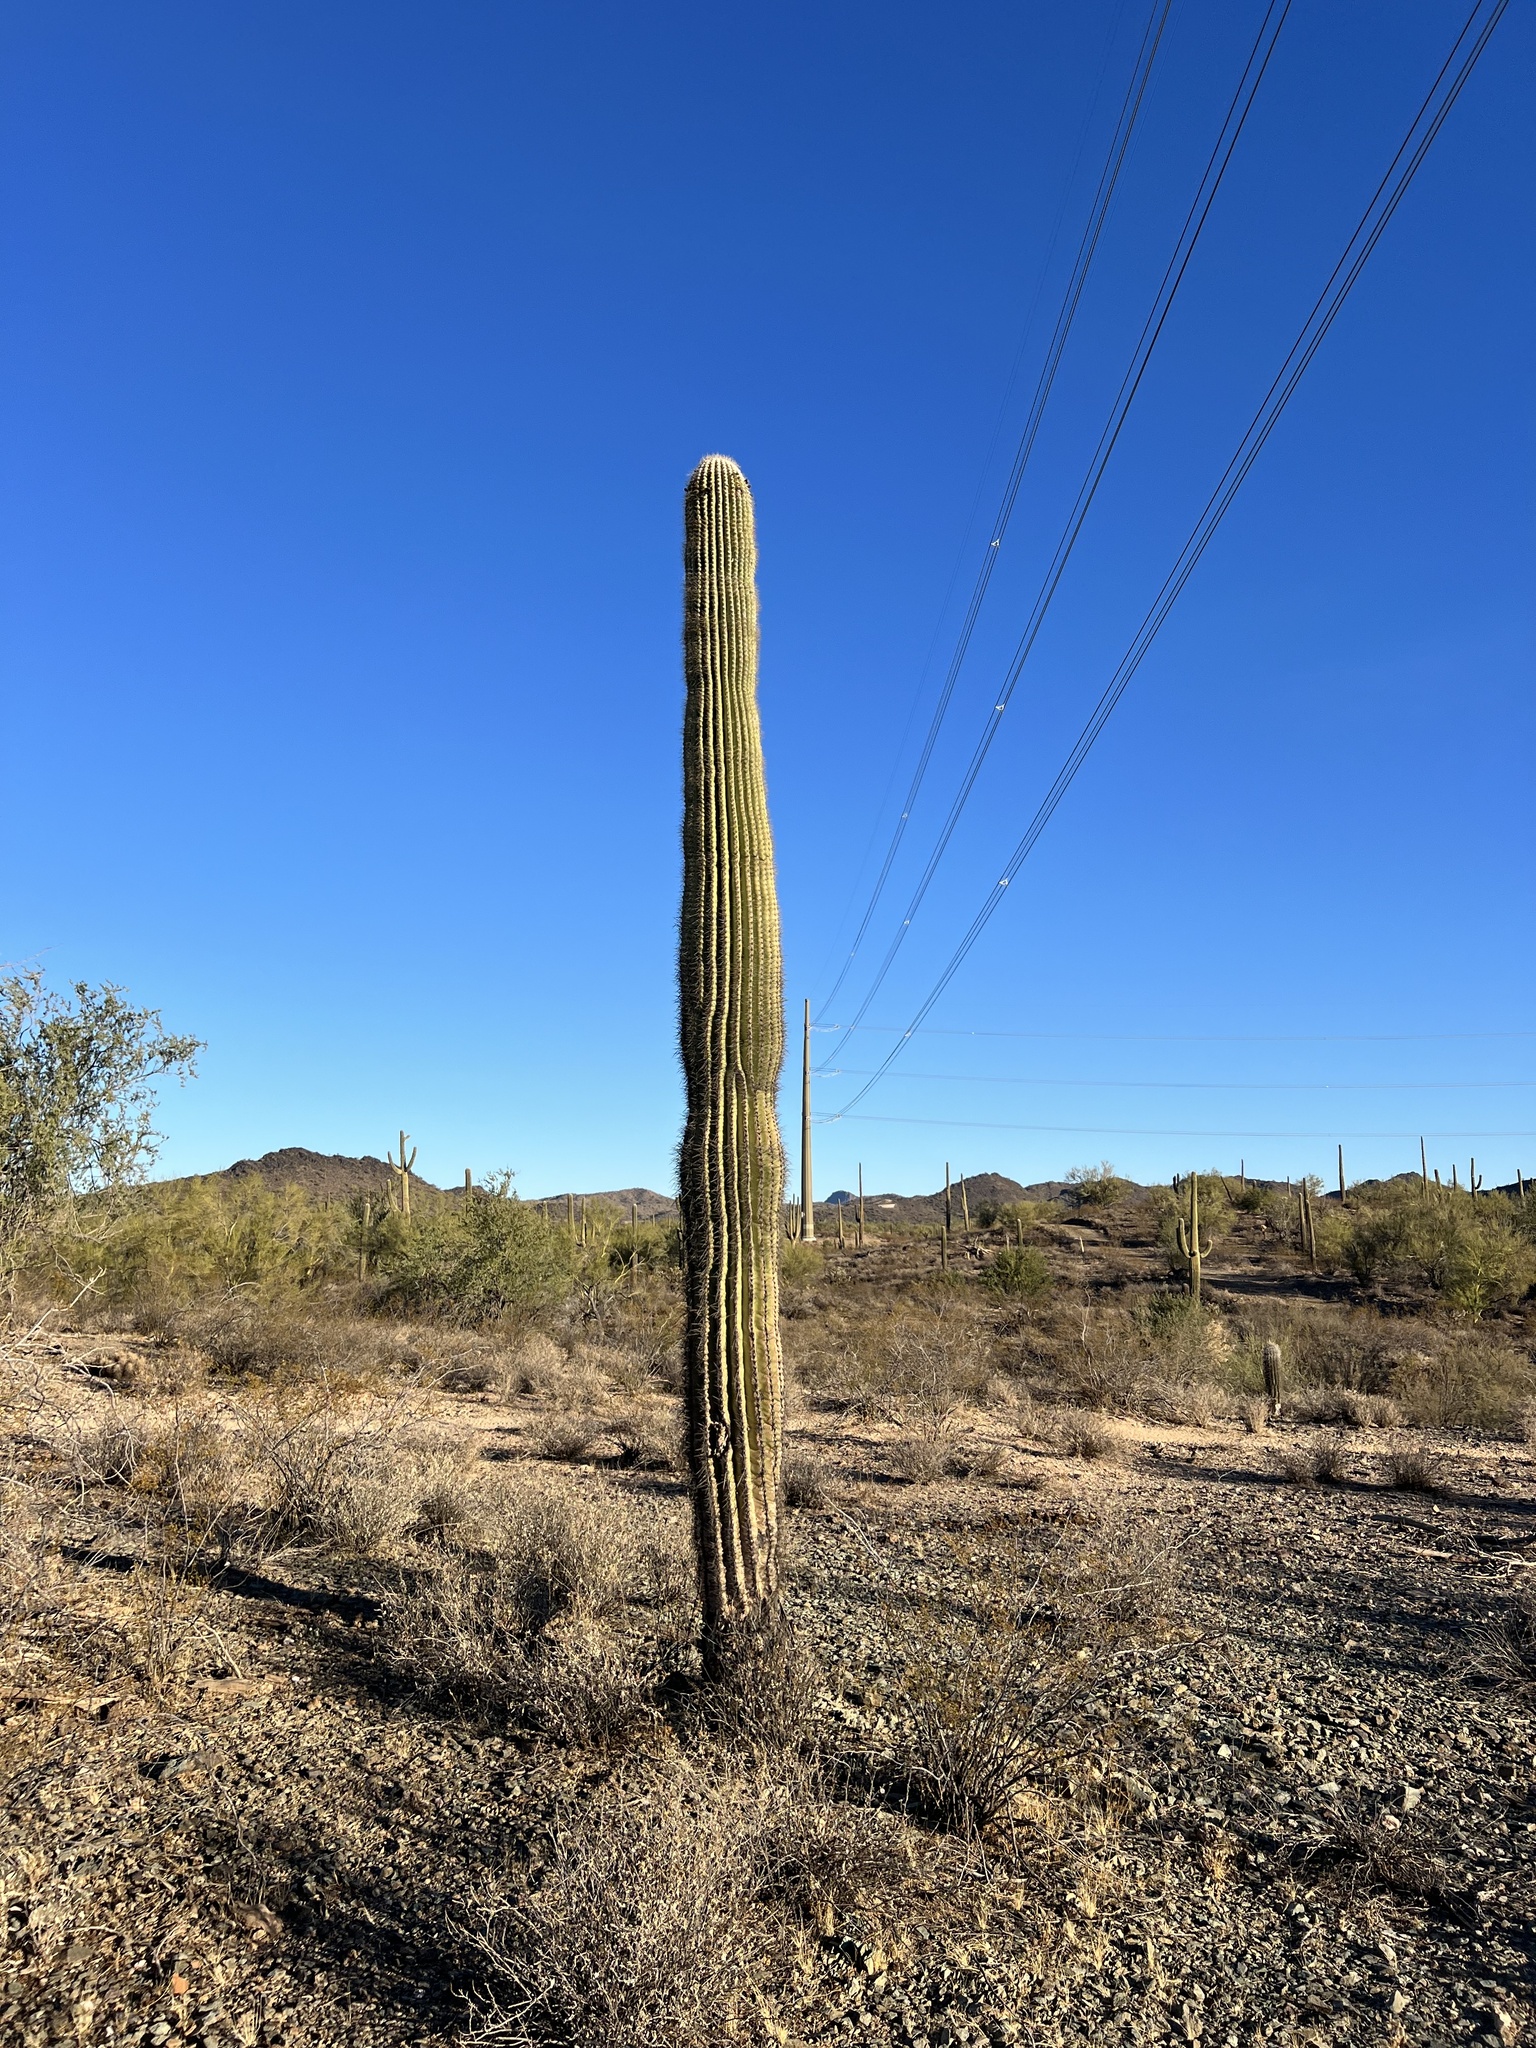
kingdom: Plantae
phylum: Tracheophyta
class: Magnoliopsida
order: Caryophyllales
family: Cactaceae
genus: Carnegiea
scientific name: Carnegiea gigantea
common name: Saguaro
